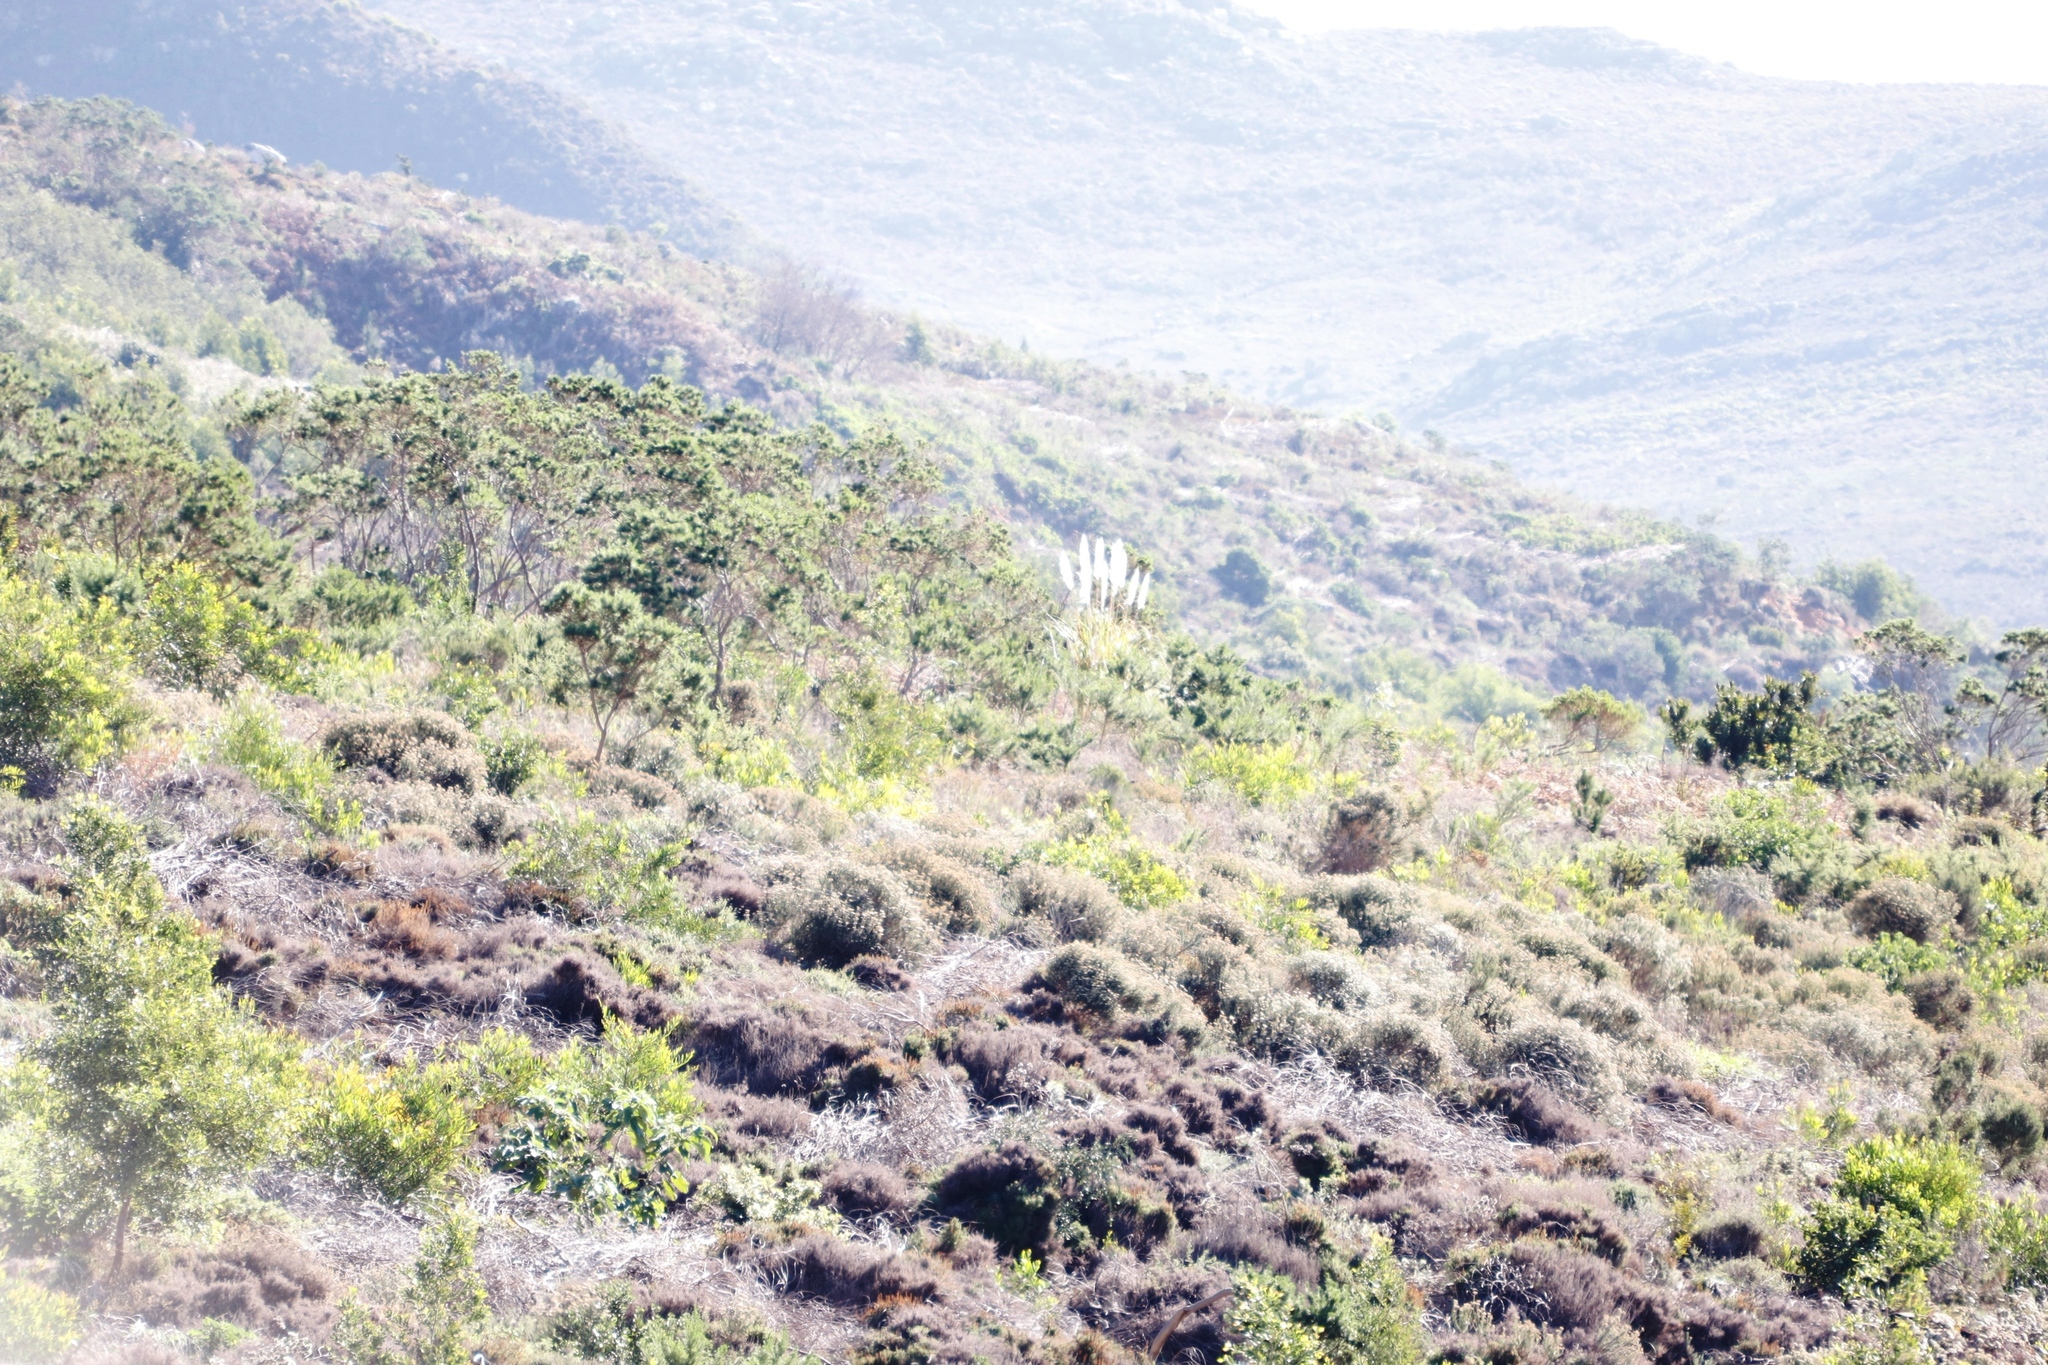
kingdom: Plantae
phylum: Tracheophyta
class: Liliopsida
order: Poales
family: Poaceae
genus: Cortaderia
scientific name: Cortaderia selloana
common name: Uruguayan pampas grass
